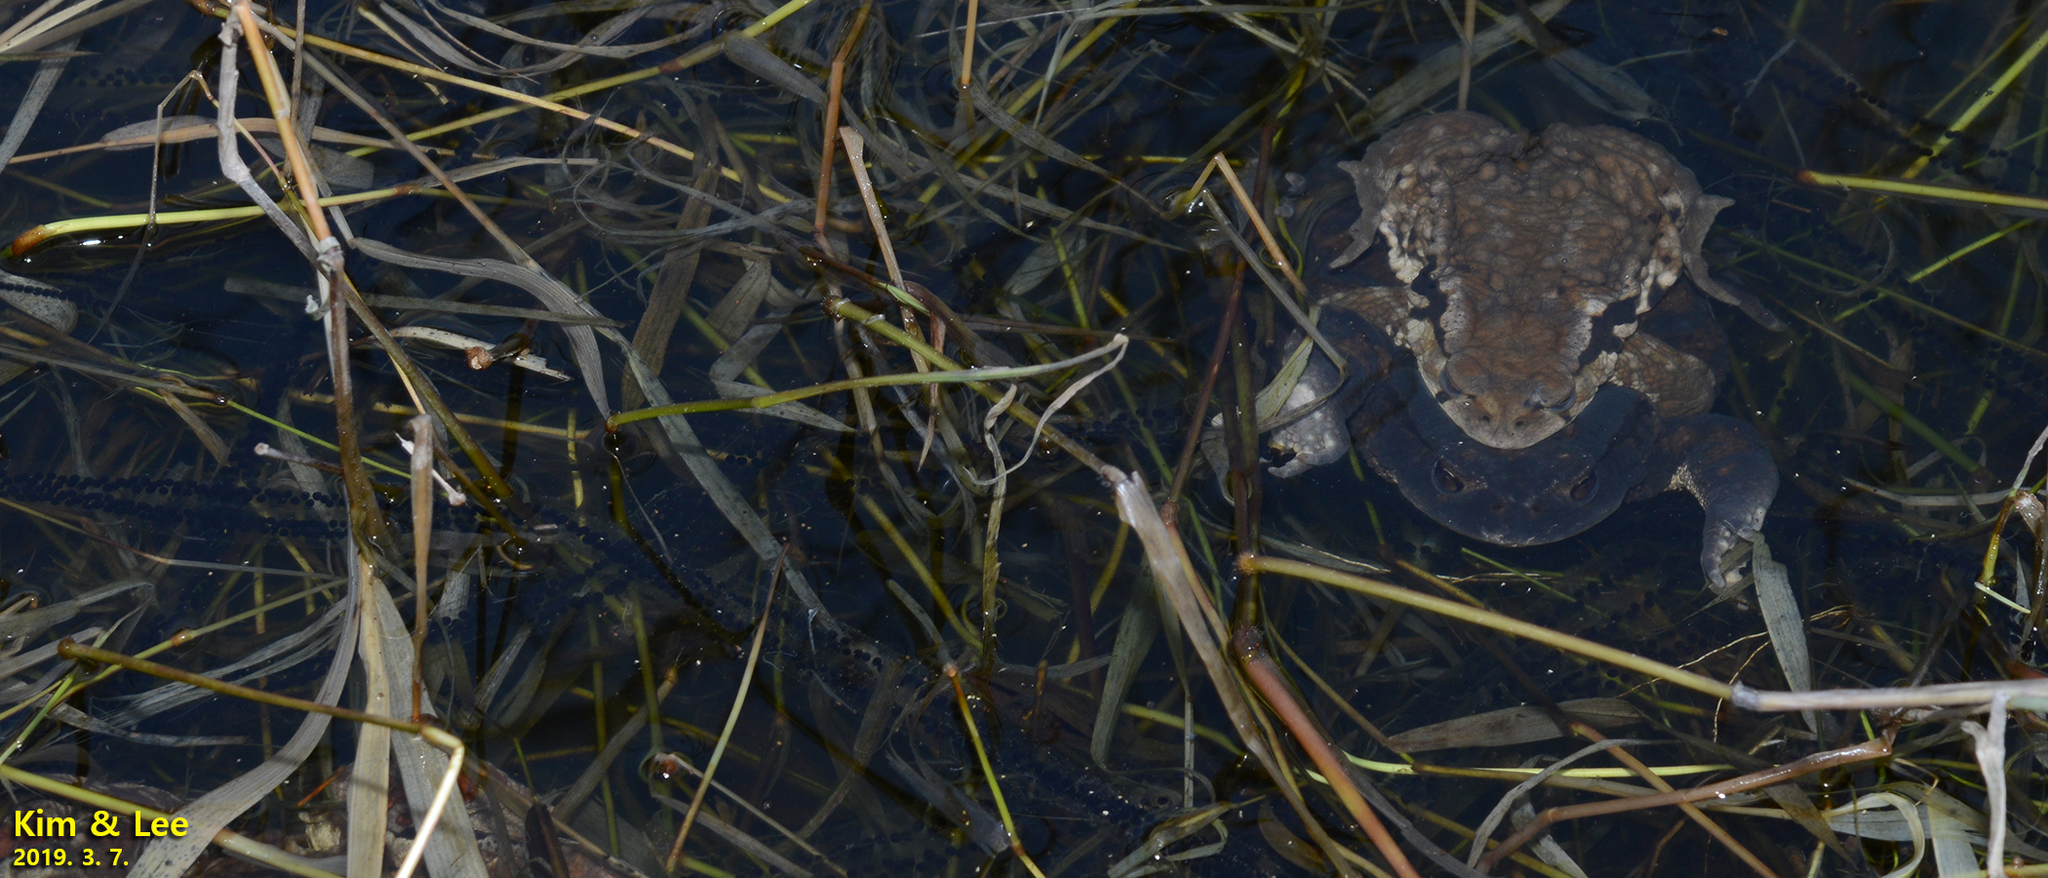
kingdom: Animalia
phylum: Chordata
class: Amphibia
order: Anura
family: Bufonidae
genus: Bufo
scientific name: Bufo gargarizans
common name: Asiatic toad
